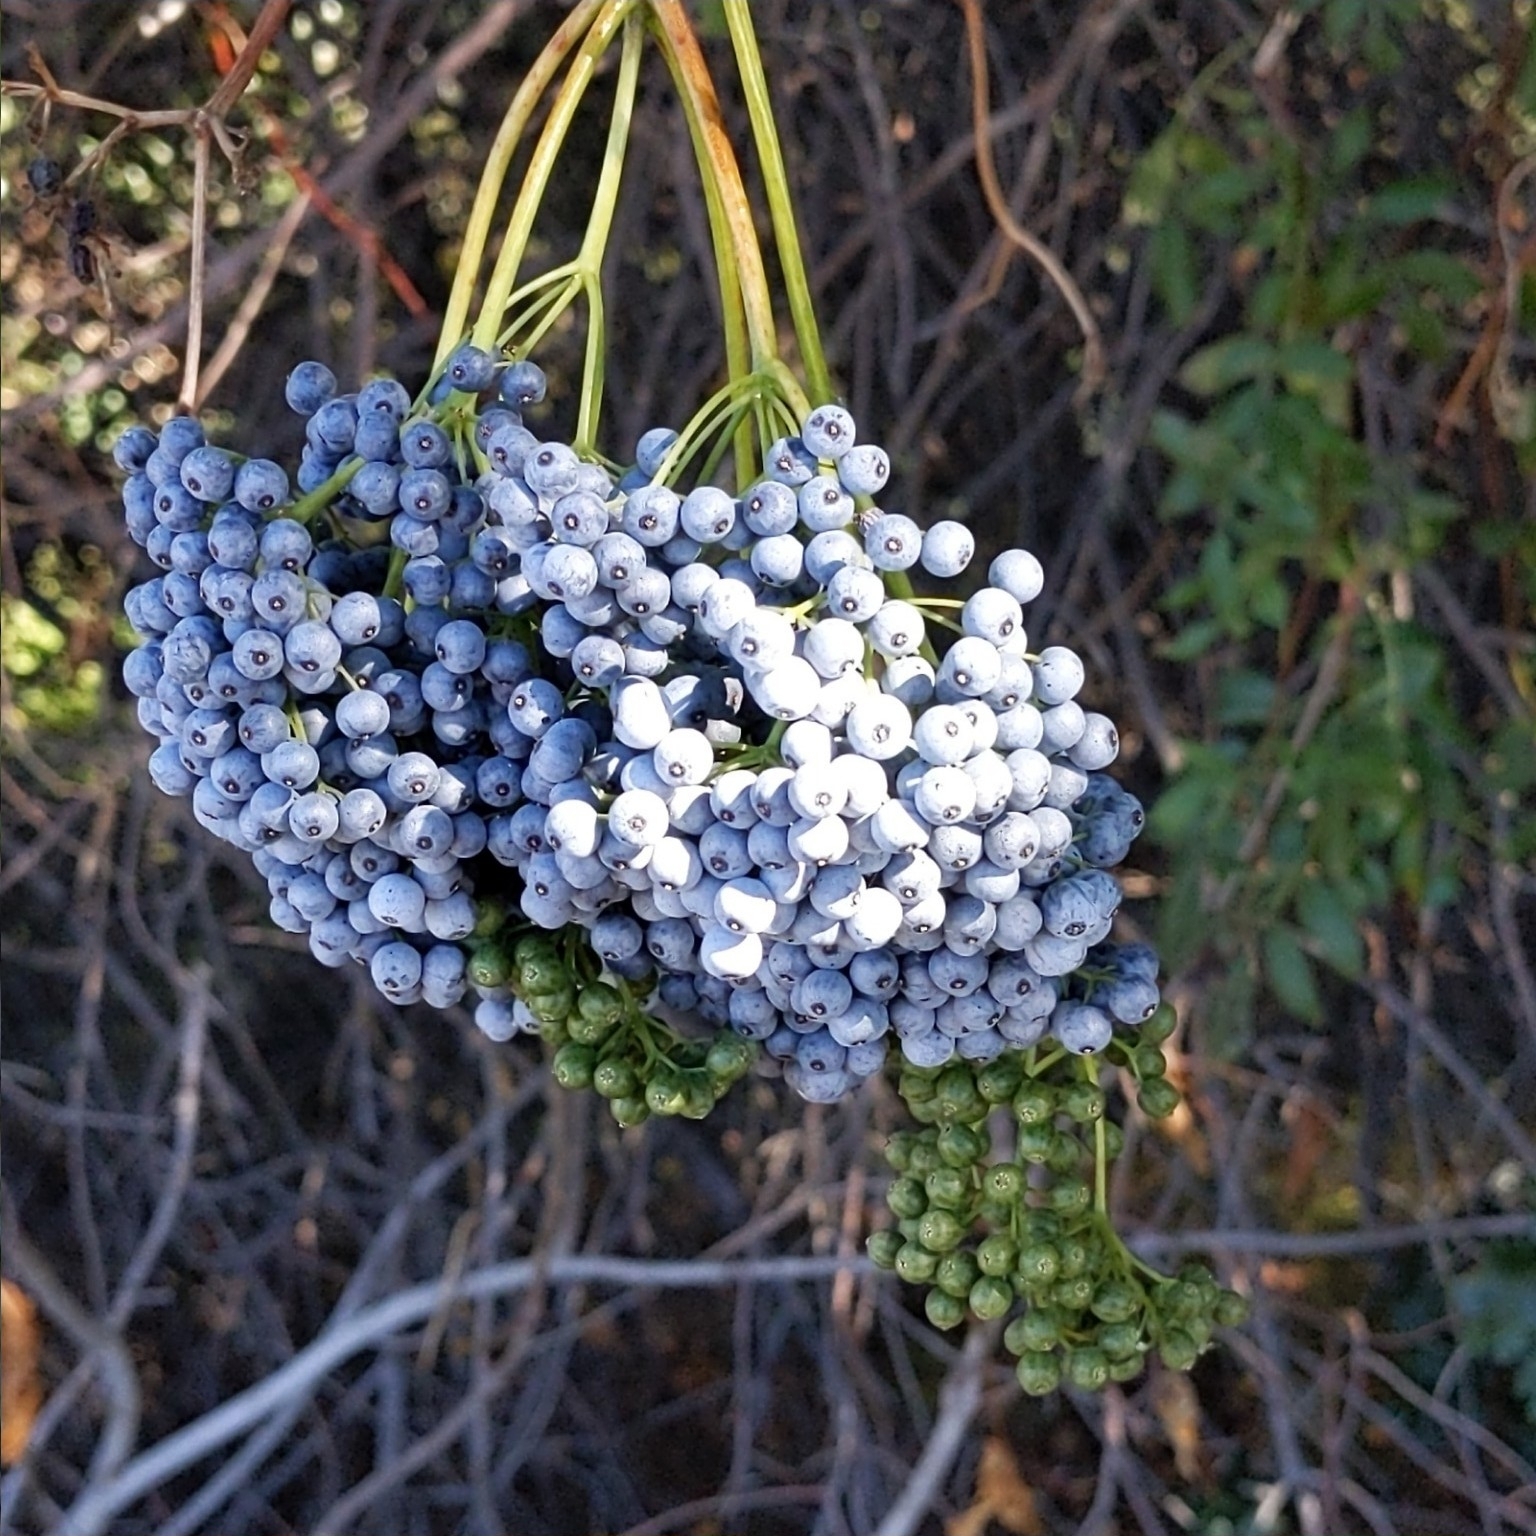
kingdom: Plantae
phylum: Tracheophyta
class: Magnoliopsida
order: Dipsacales
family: Viburnaceae
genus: Sambucus
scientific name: Sambucus cerulea
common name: Blue elder
